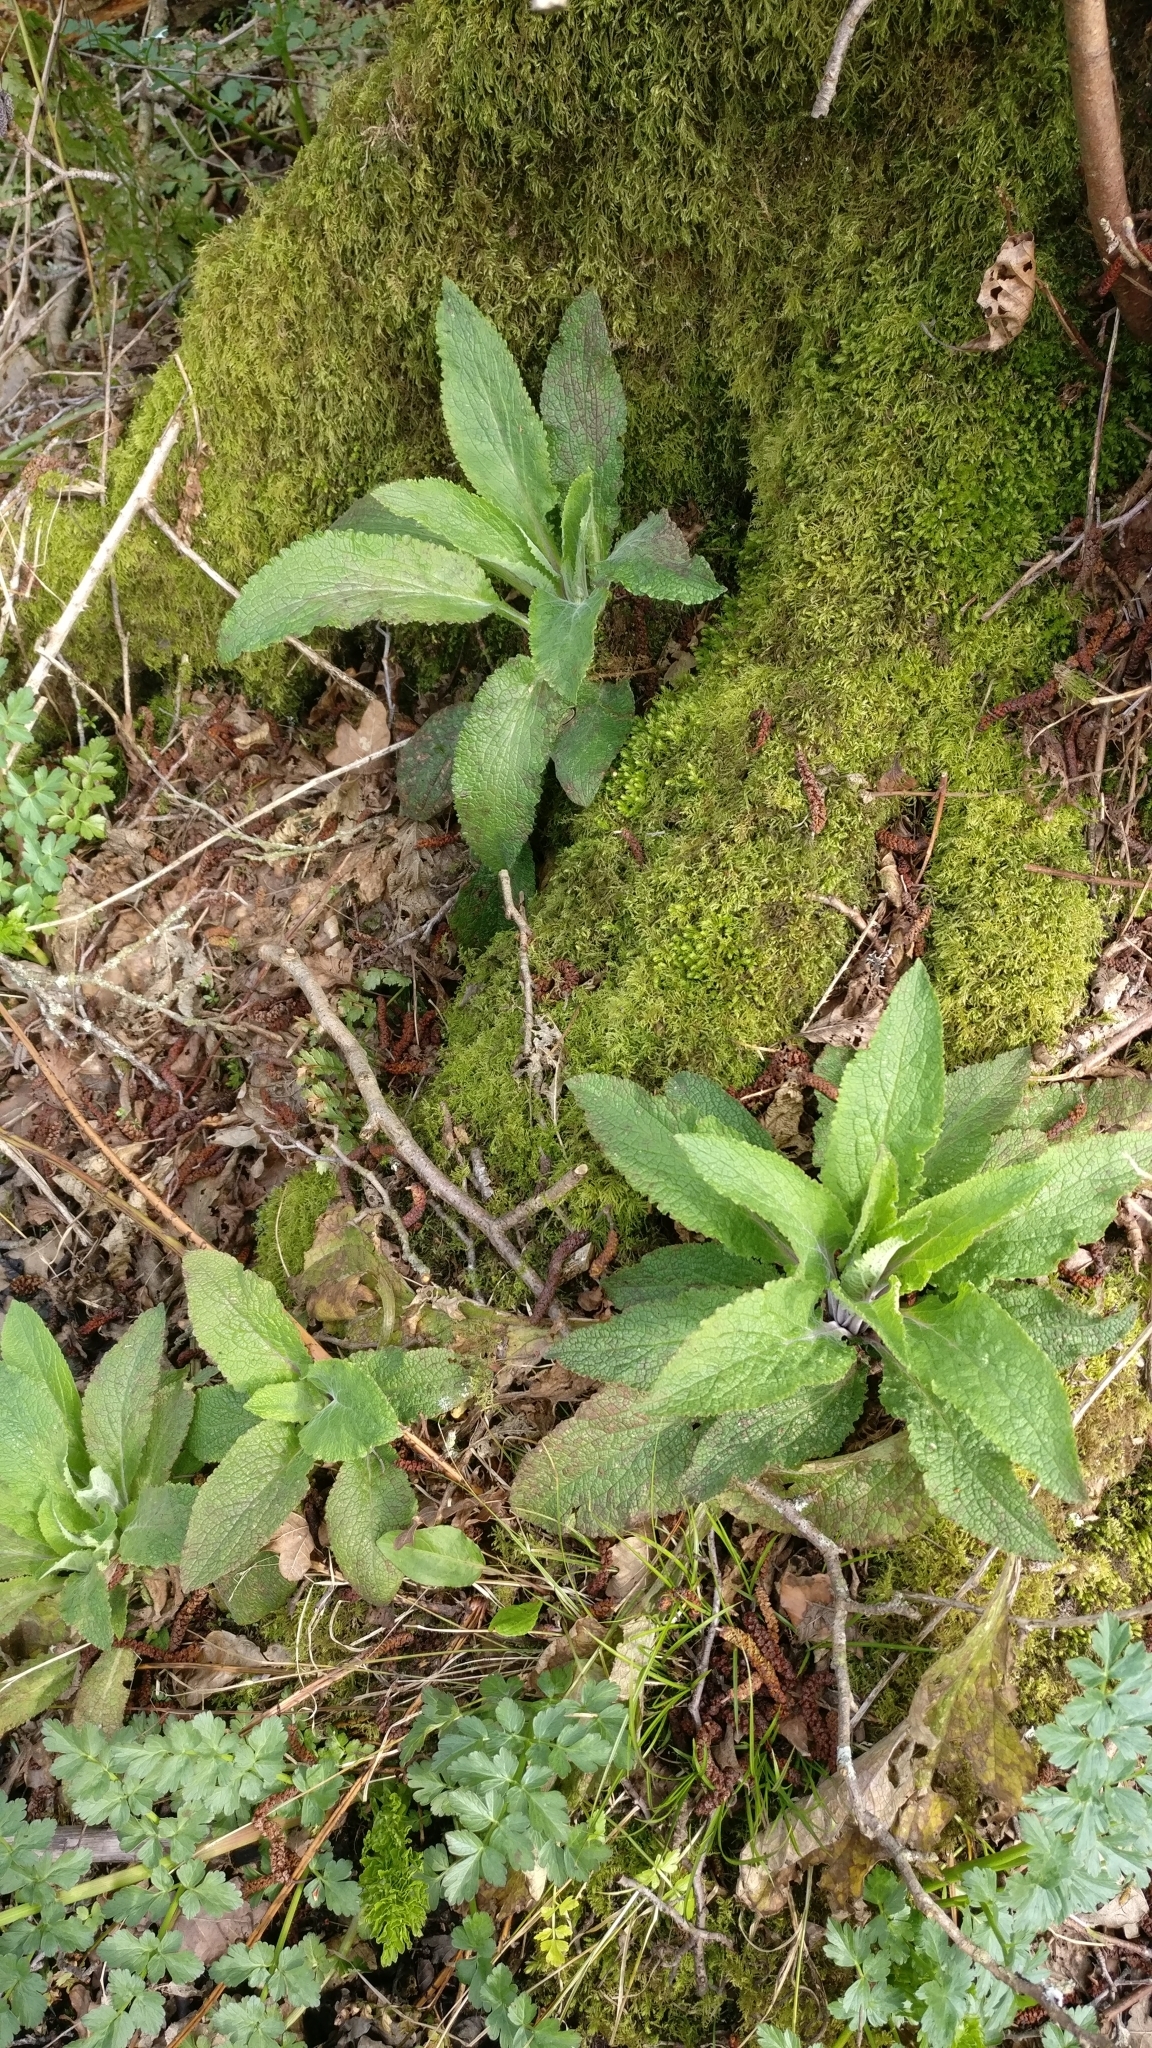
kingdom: Plantae
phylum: Tracheophyta
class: Magnoliopsida
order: Lamiales
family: Plantaginaceae
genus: Digitalis
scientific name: Digitalis purpurea
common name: Foxglove
